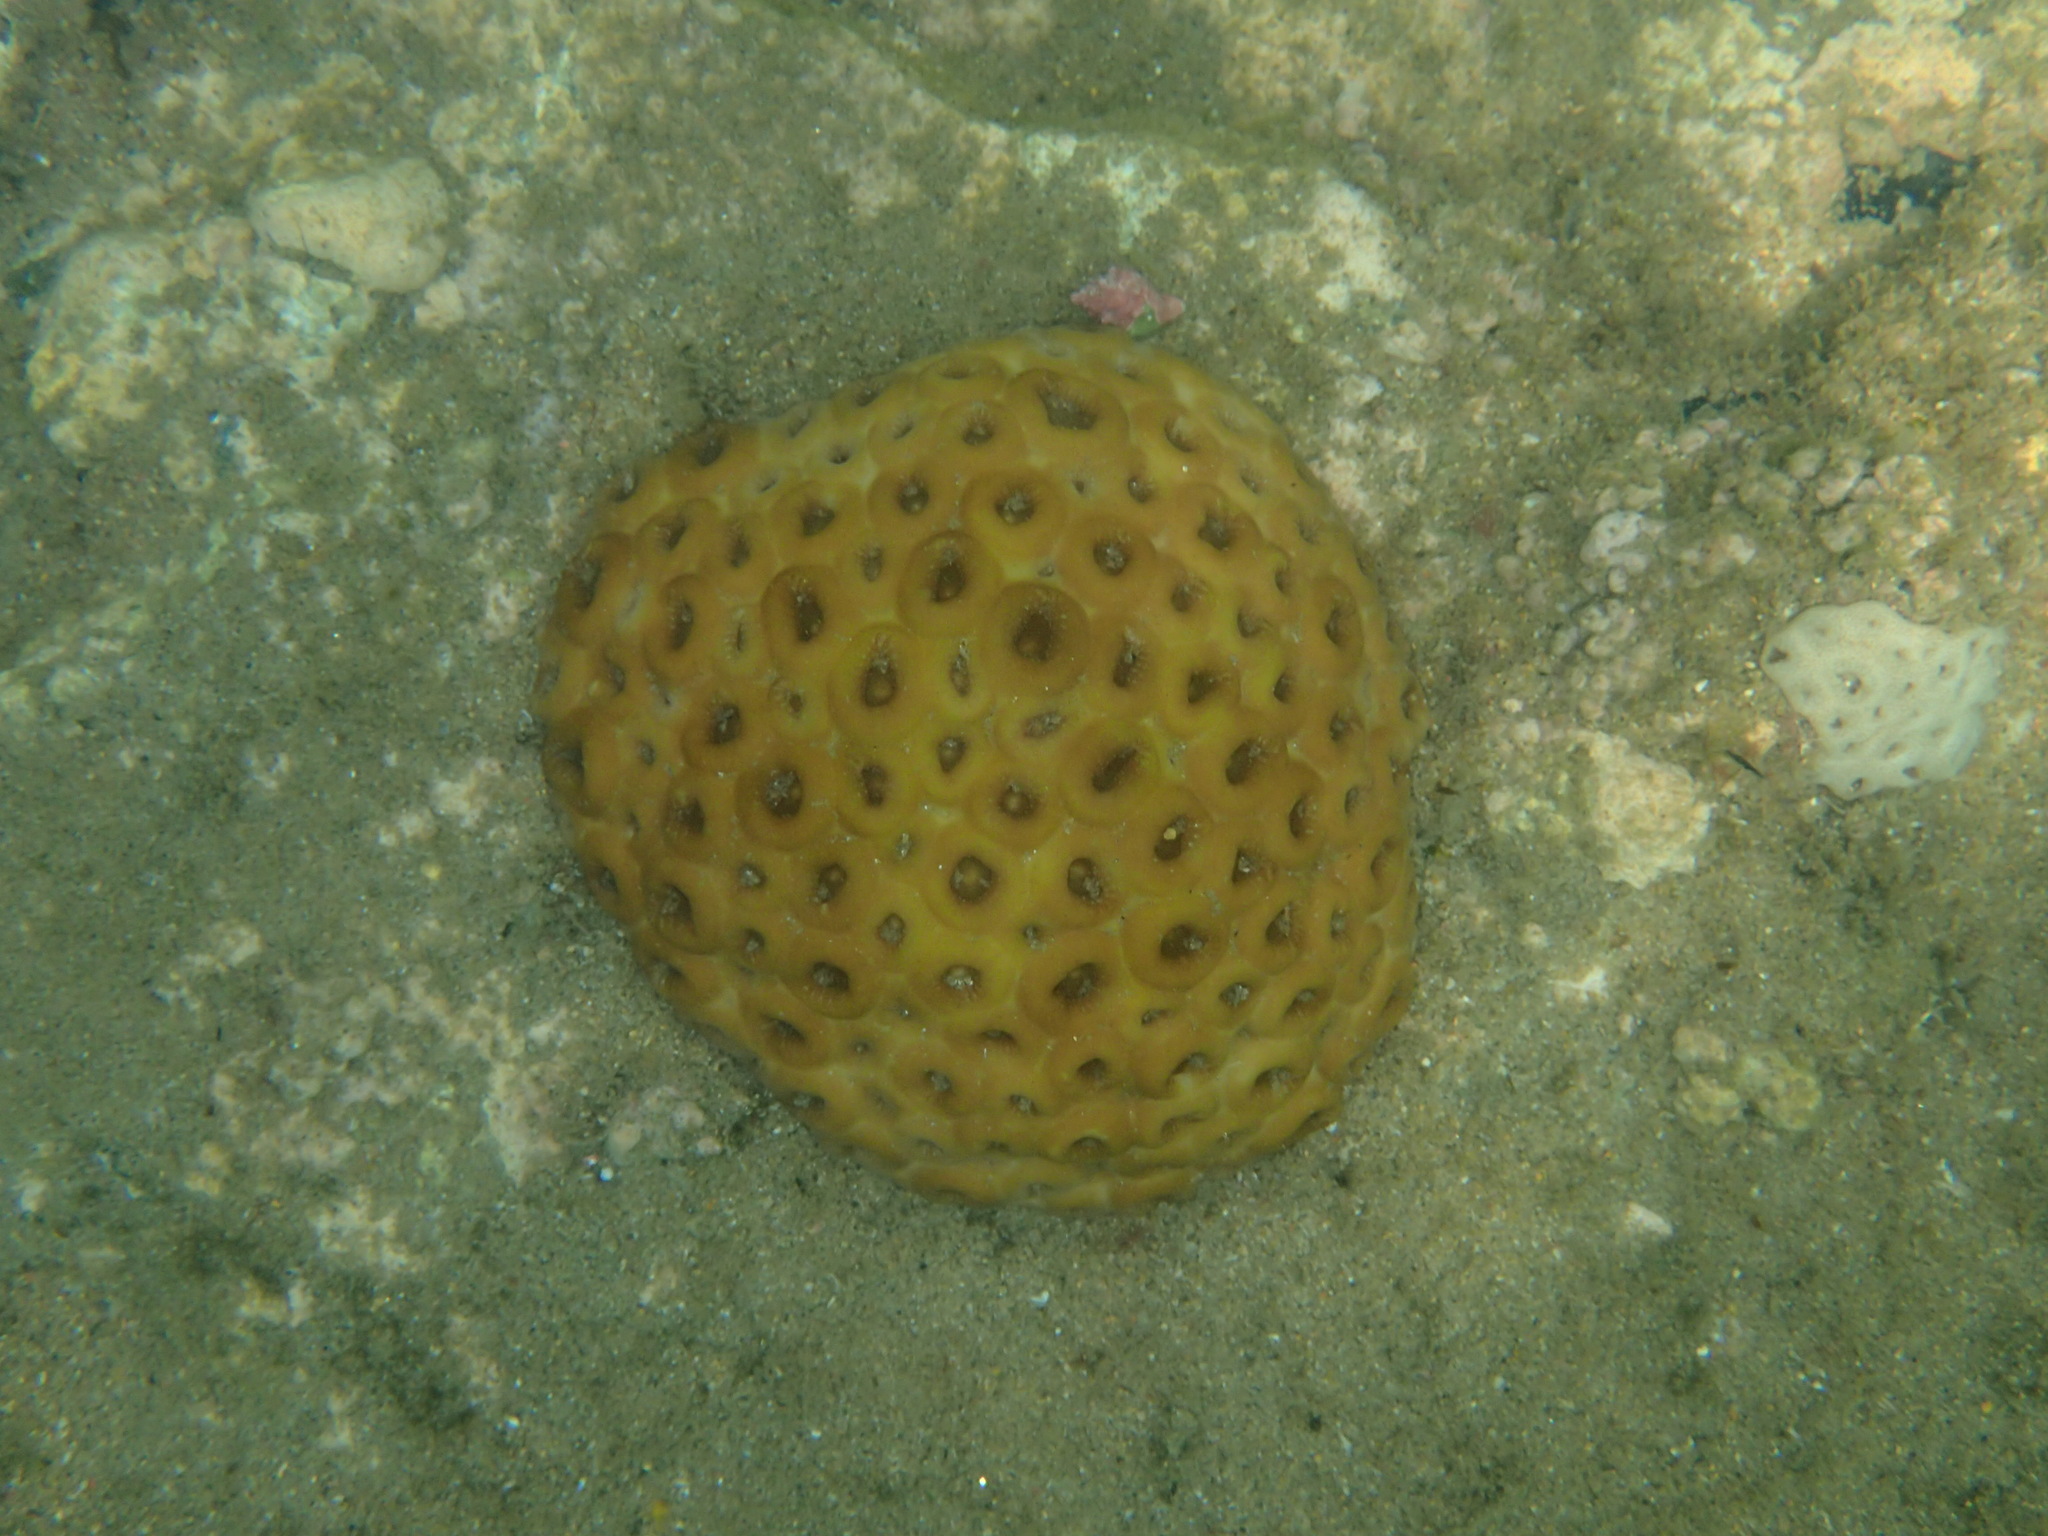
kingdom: Animalia
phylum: Cnidaria
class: Anthozoa
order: Zoantharia
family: Sphenopidae
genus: Palythoa
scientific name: Palythoa tuberculosa
